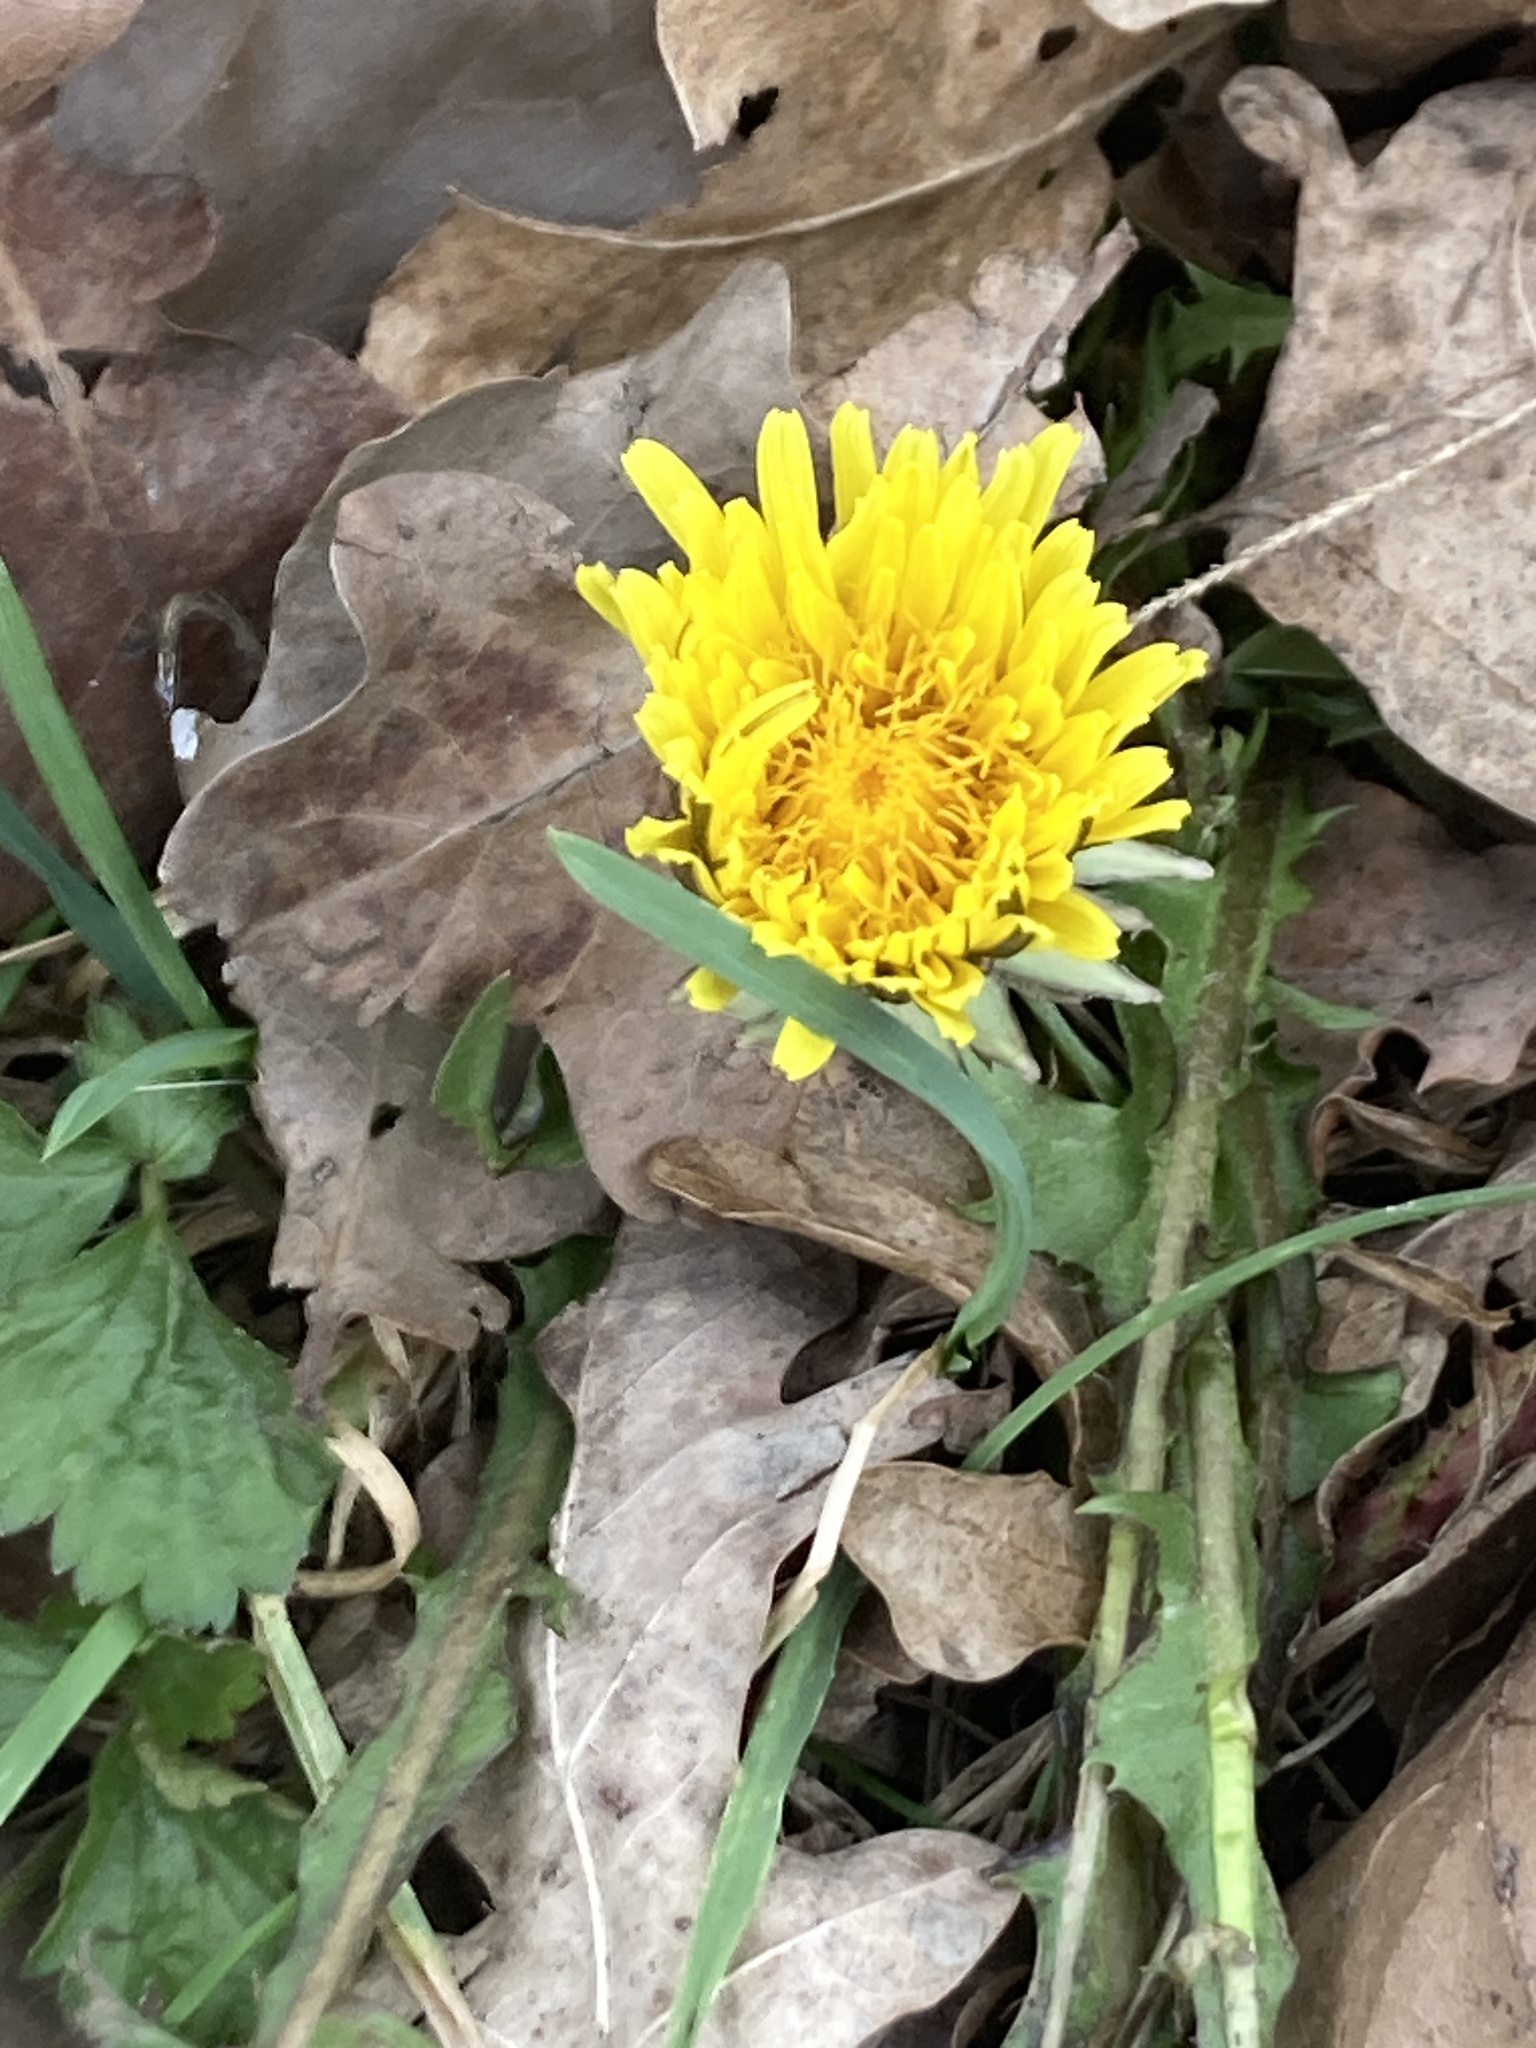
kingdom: Plantae
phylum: Tracheophyta
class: Magnoliopsida
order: Asterales
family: Asteraceae
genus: Taraxacum
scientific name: Taraxacum officinale
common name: Common dandelion
